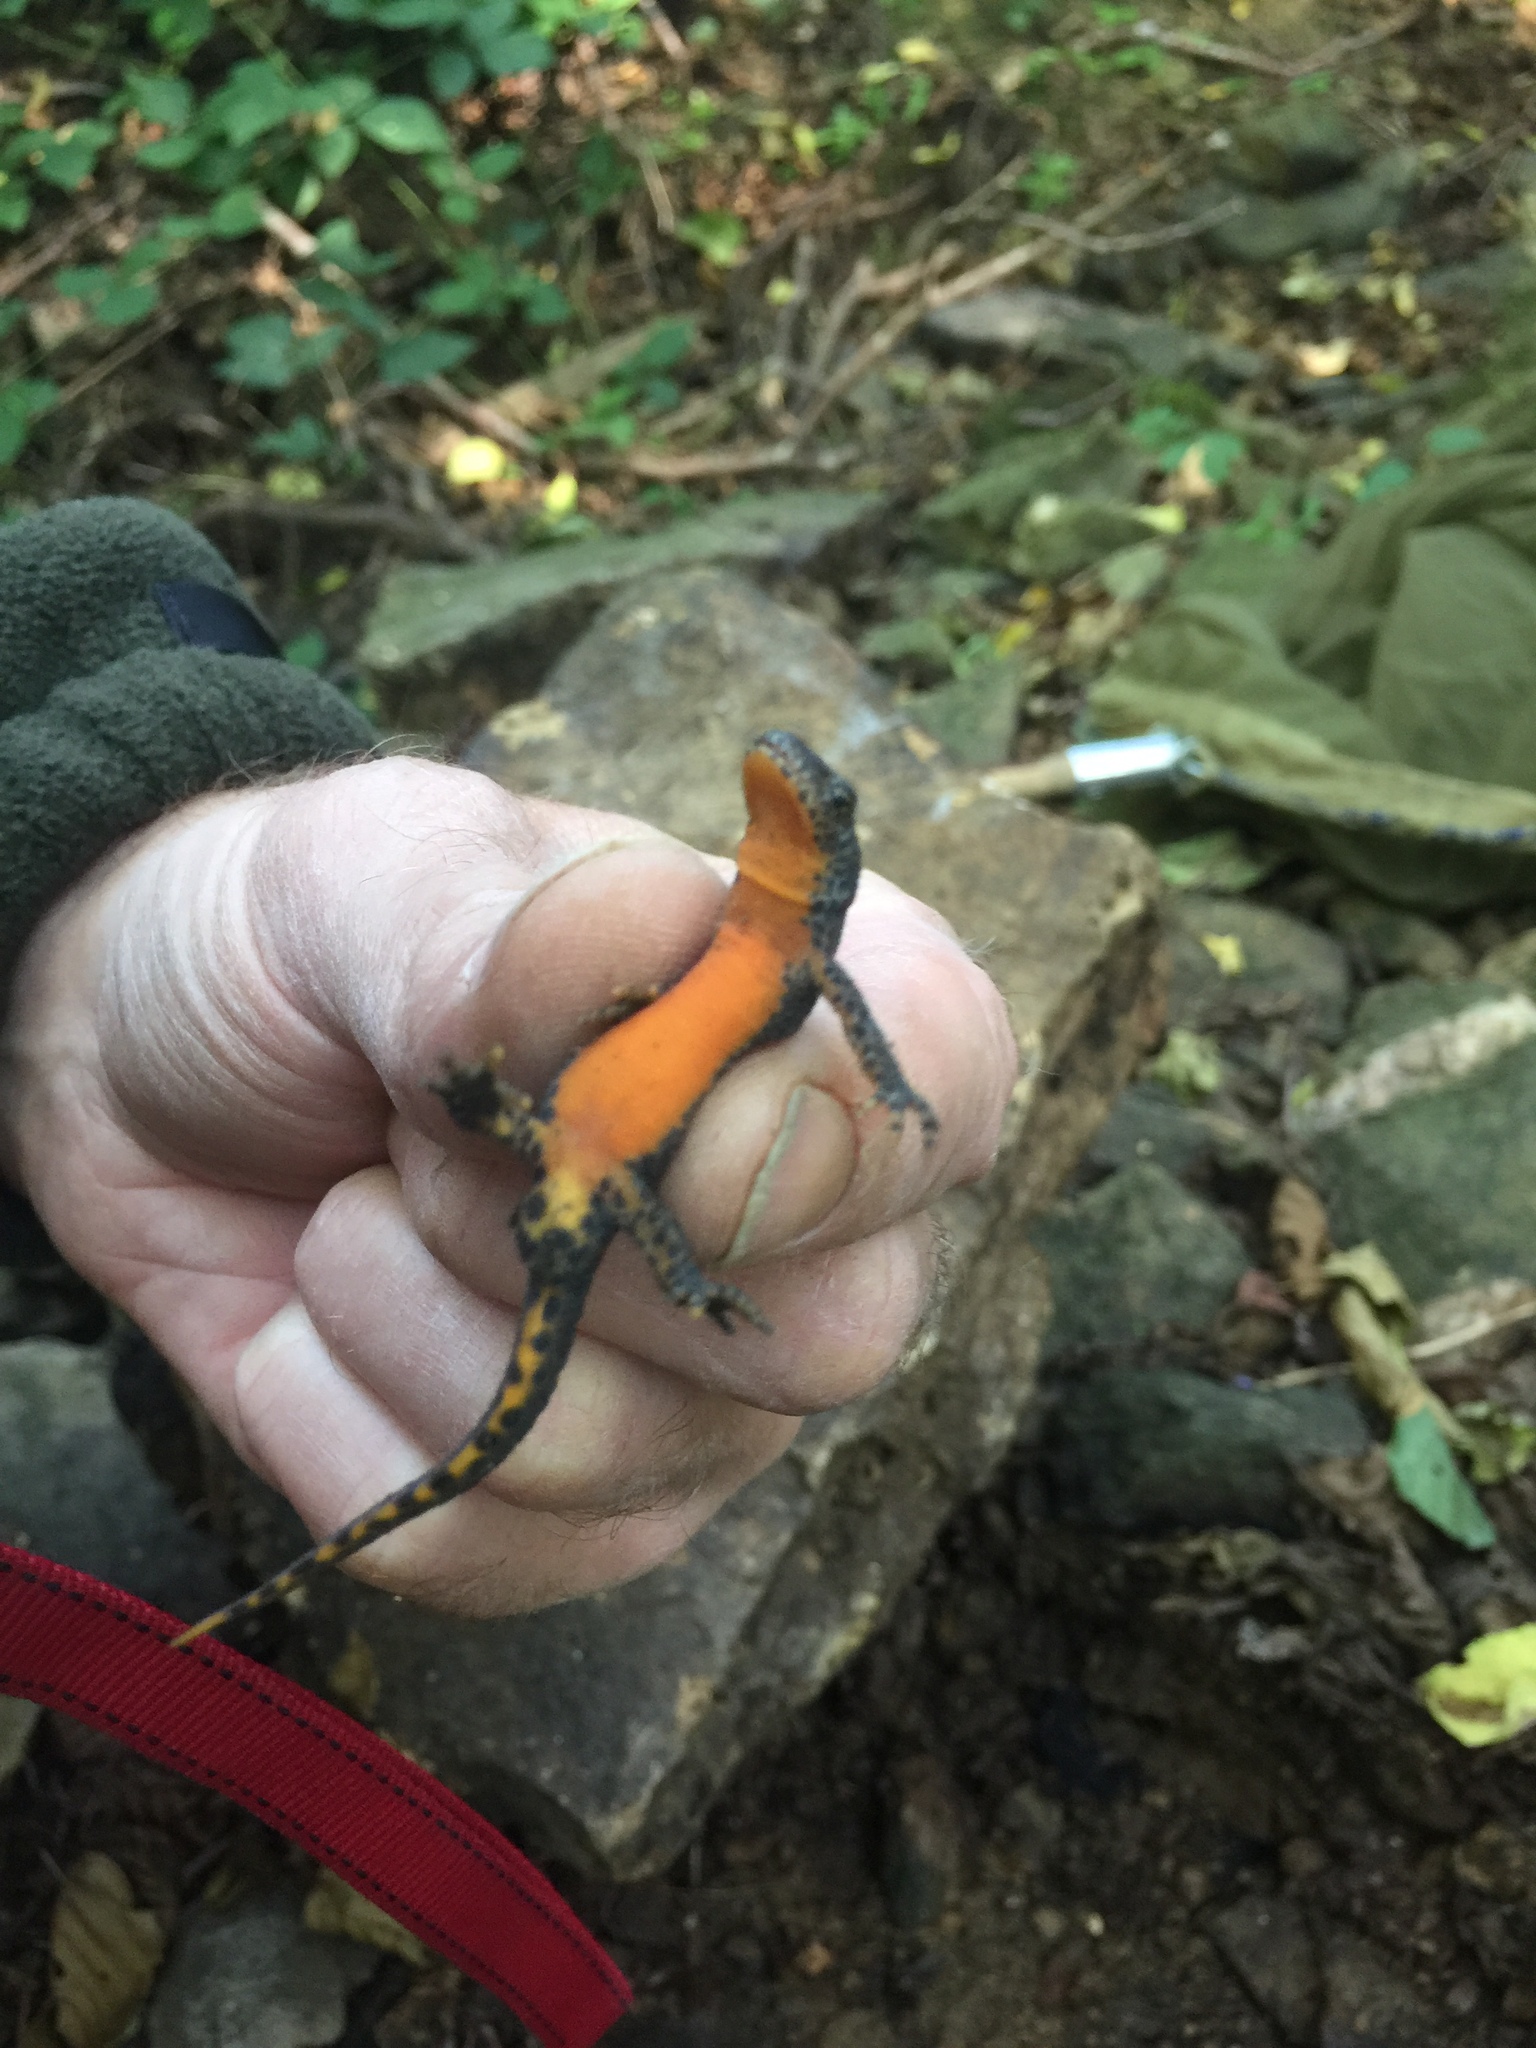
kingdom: Animalia
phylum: Chordata
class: Amphibia
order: Caudata
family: Salamandridae
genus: Ichthyosaura
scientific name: Ichthyosaura alpestris
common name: Alpine newt
